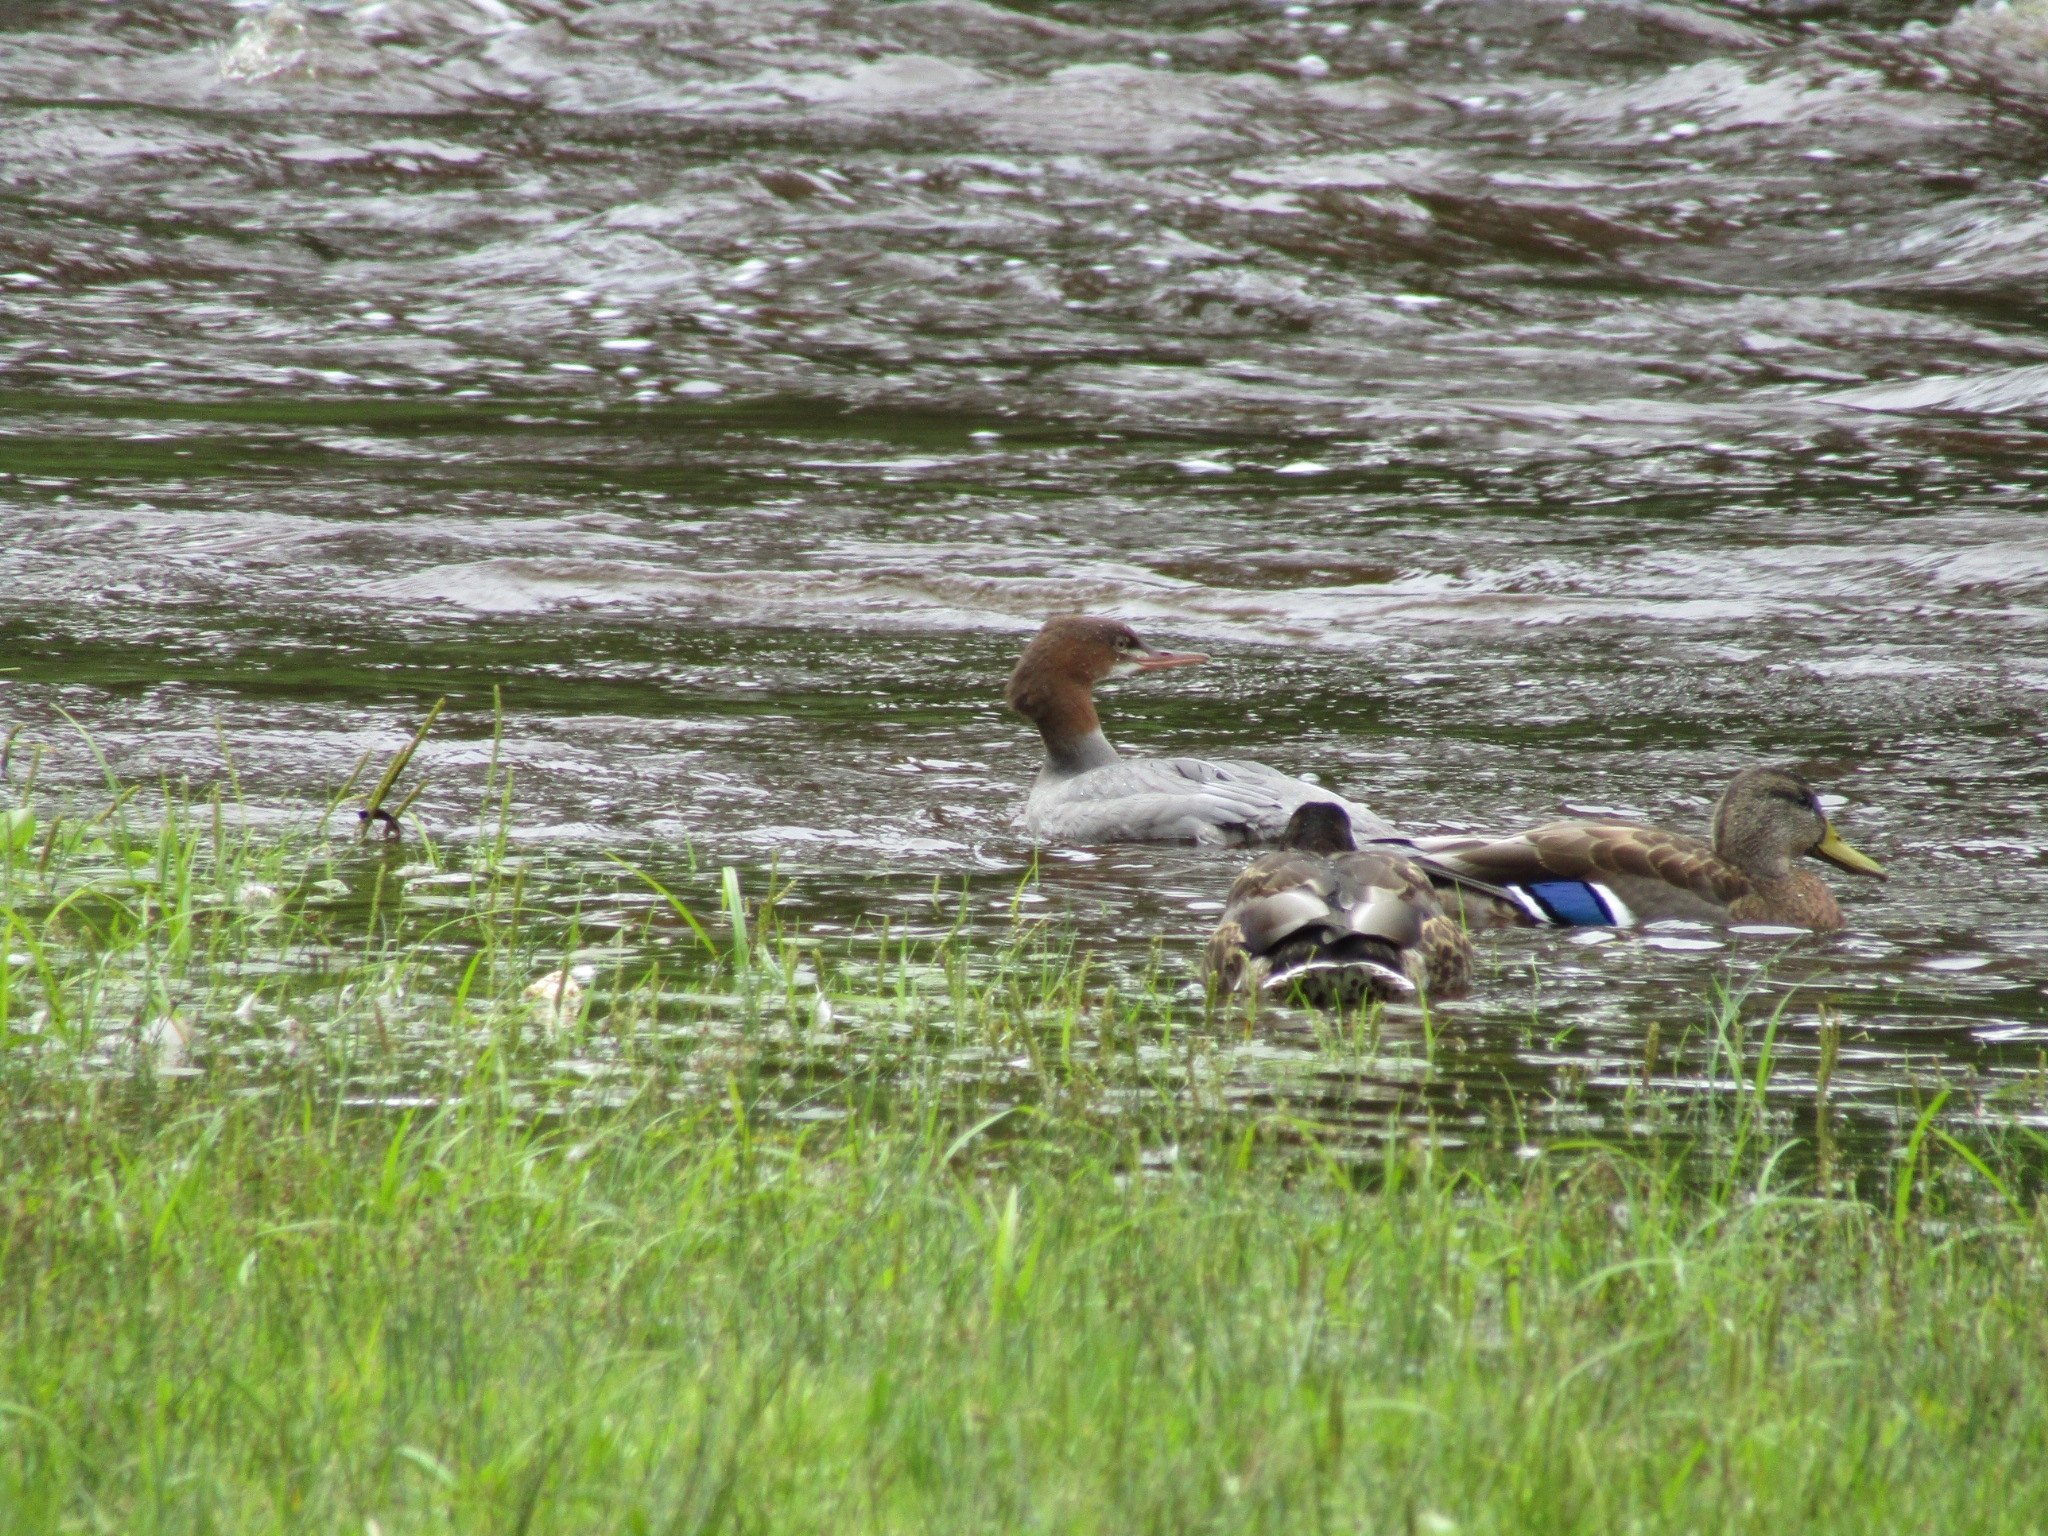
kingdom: Animalia
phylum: Chordata
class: Aves
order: Anseriformes
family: Anatidae
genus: Mergus
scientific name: Mergus merganser
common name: Common merganser
